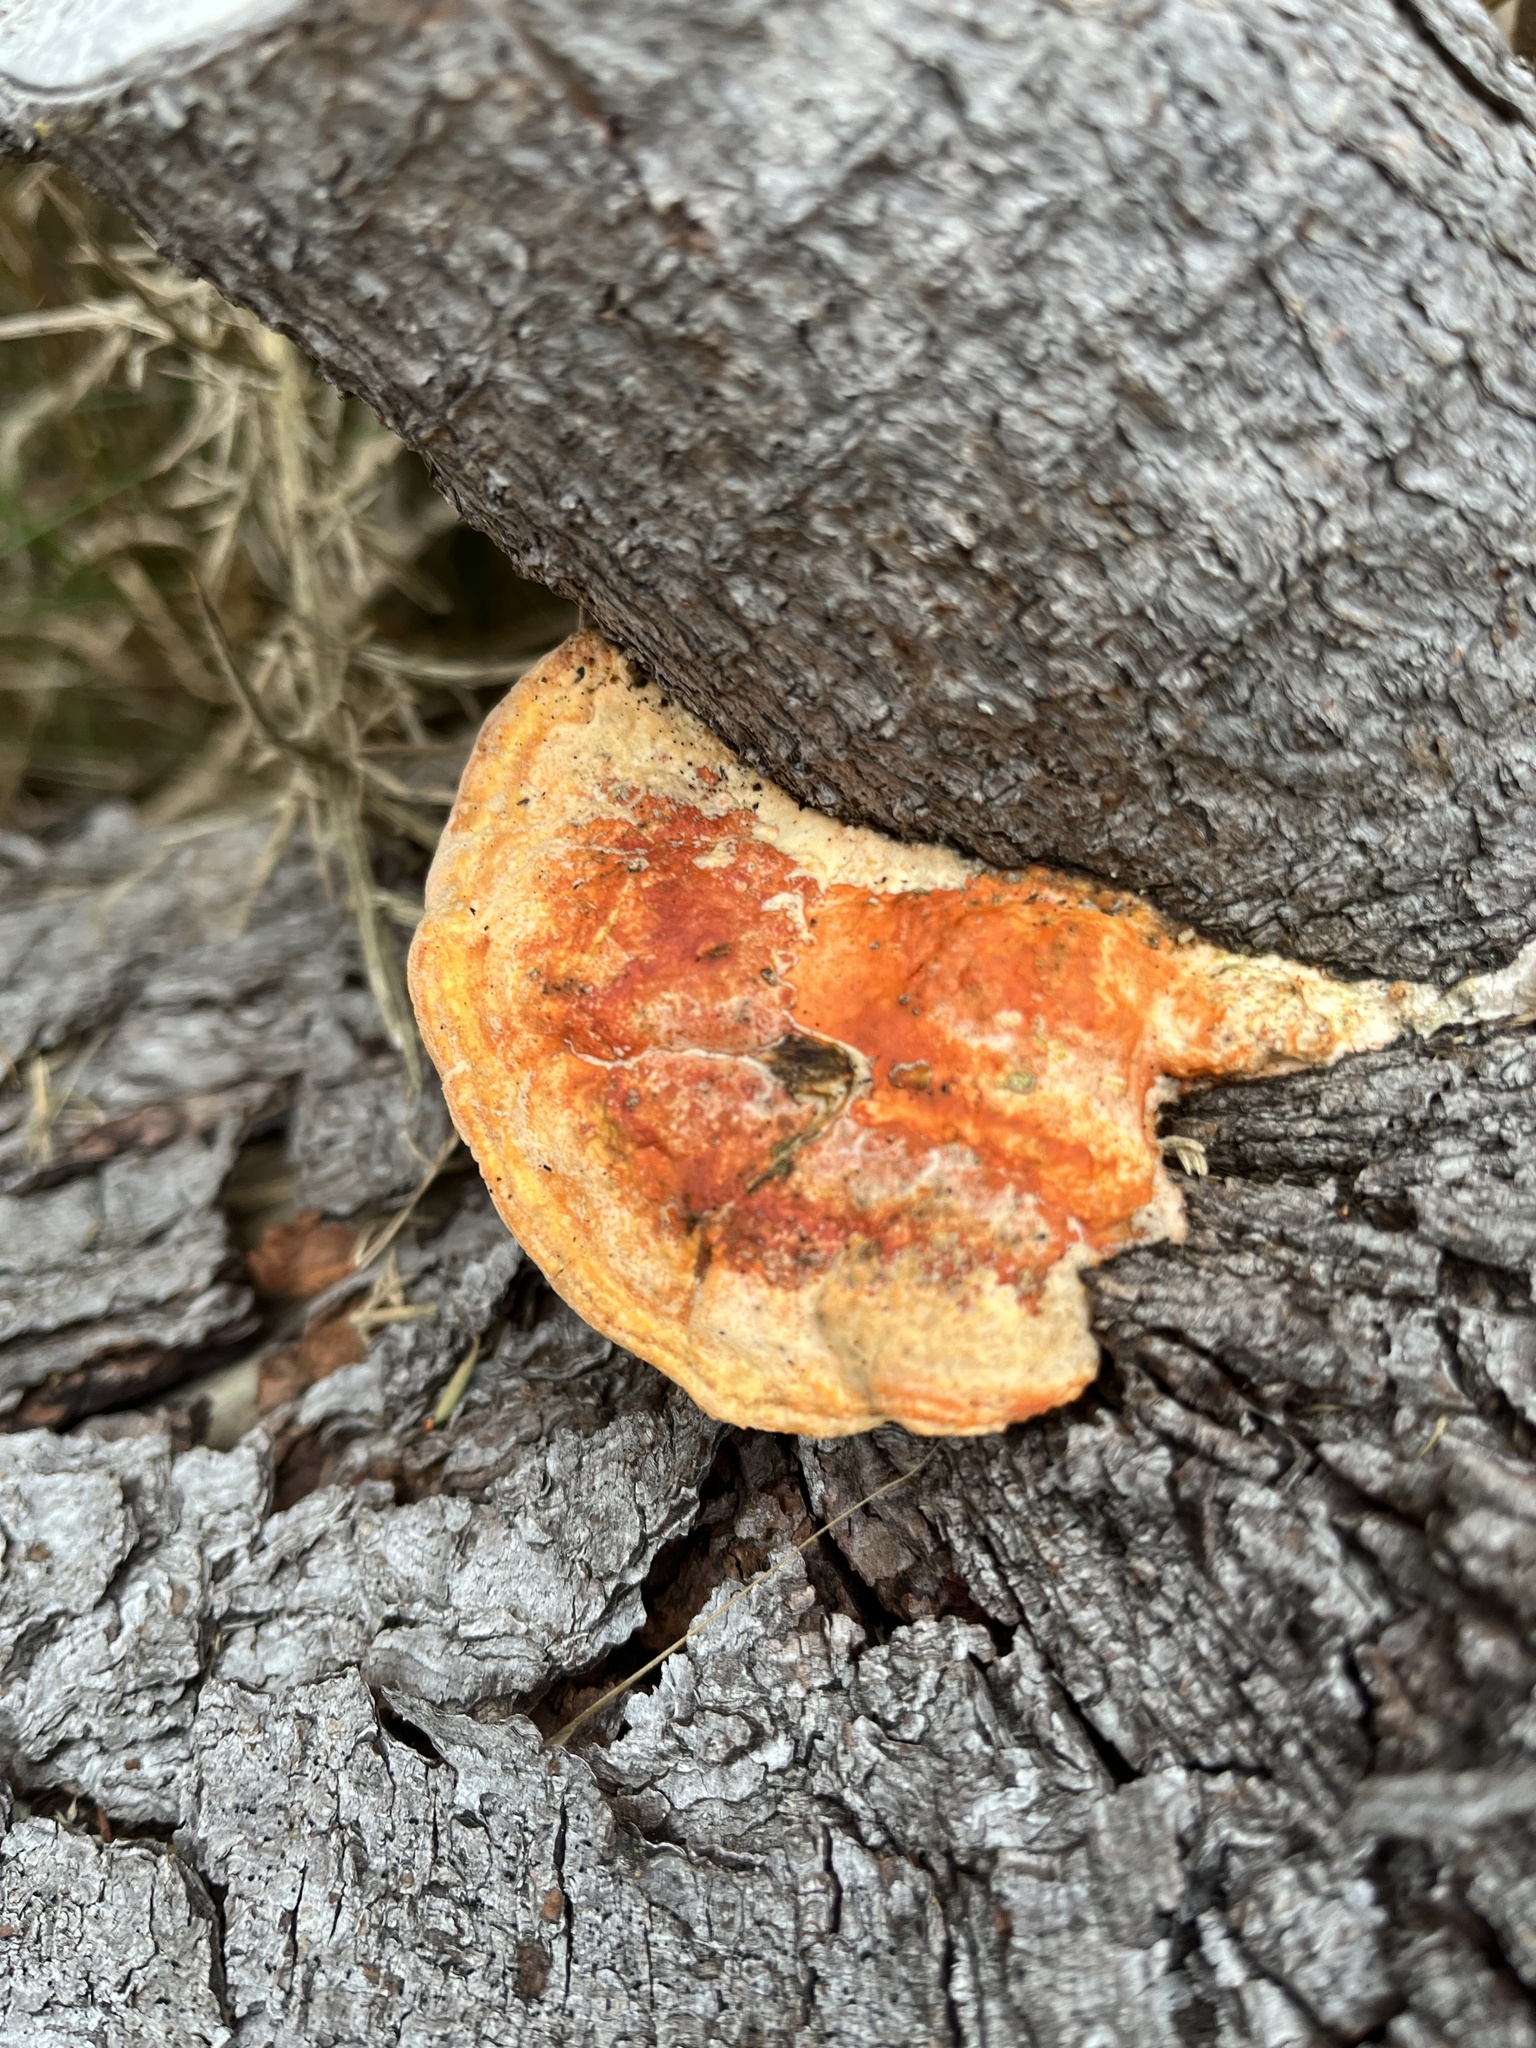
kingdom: Fungi
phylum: Basidiomycota
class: Agaricomycetes
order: Polyporales
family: Polyporaceae
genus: Trametes
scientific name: Trametes coccinea
